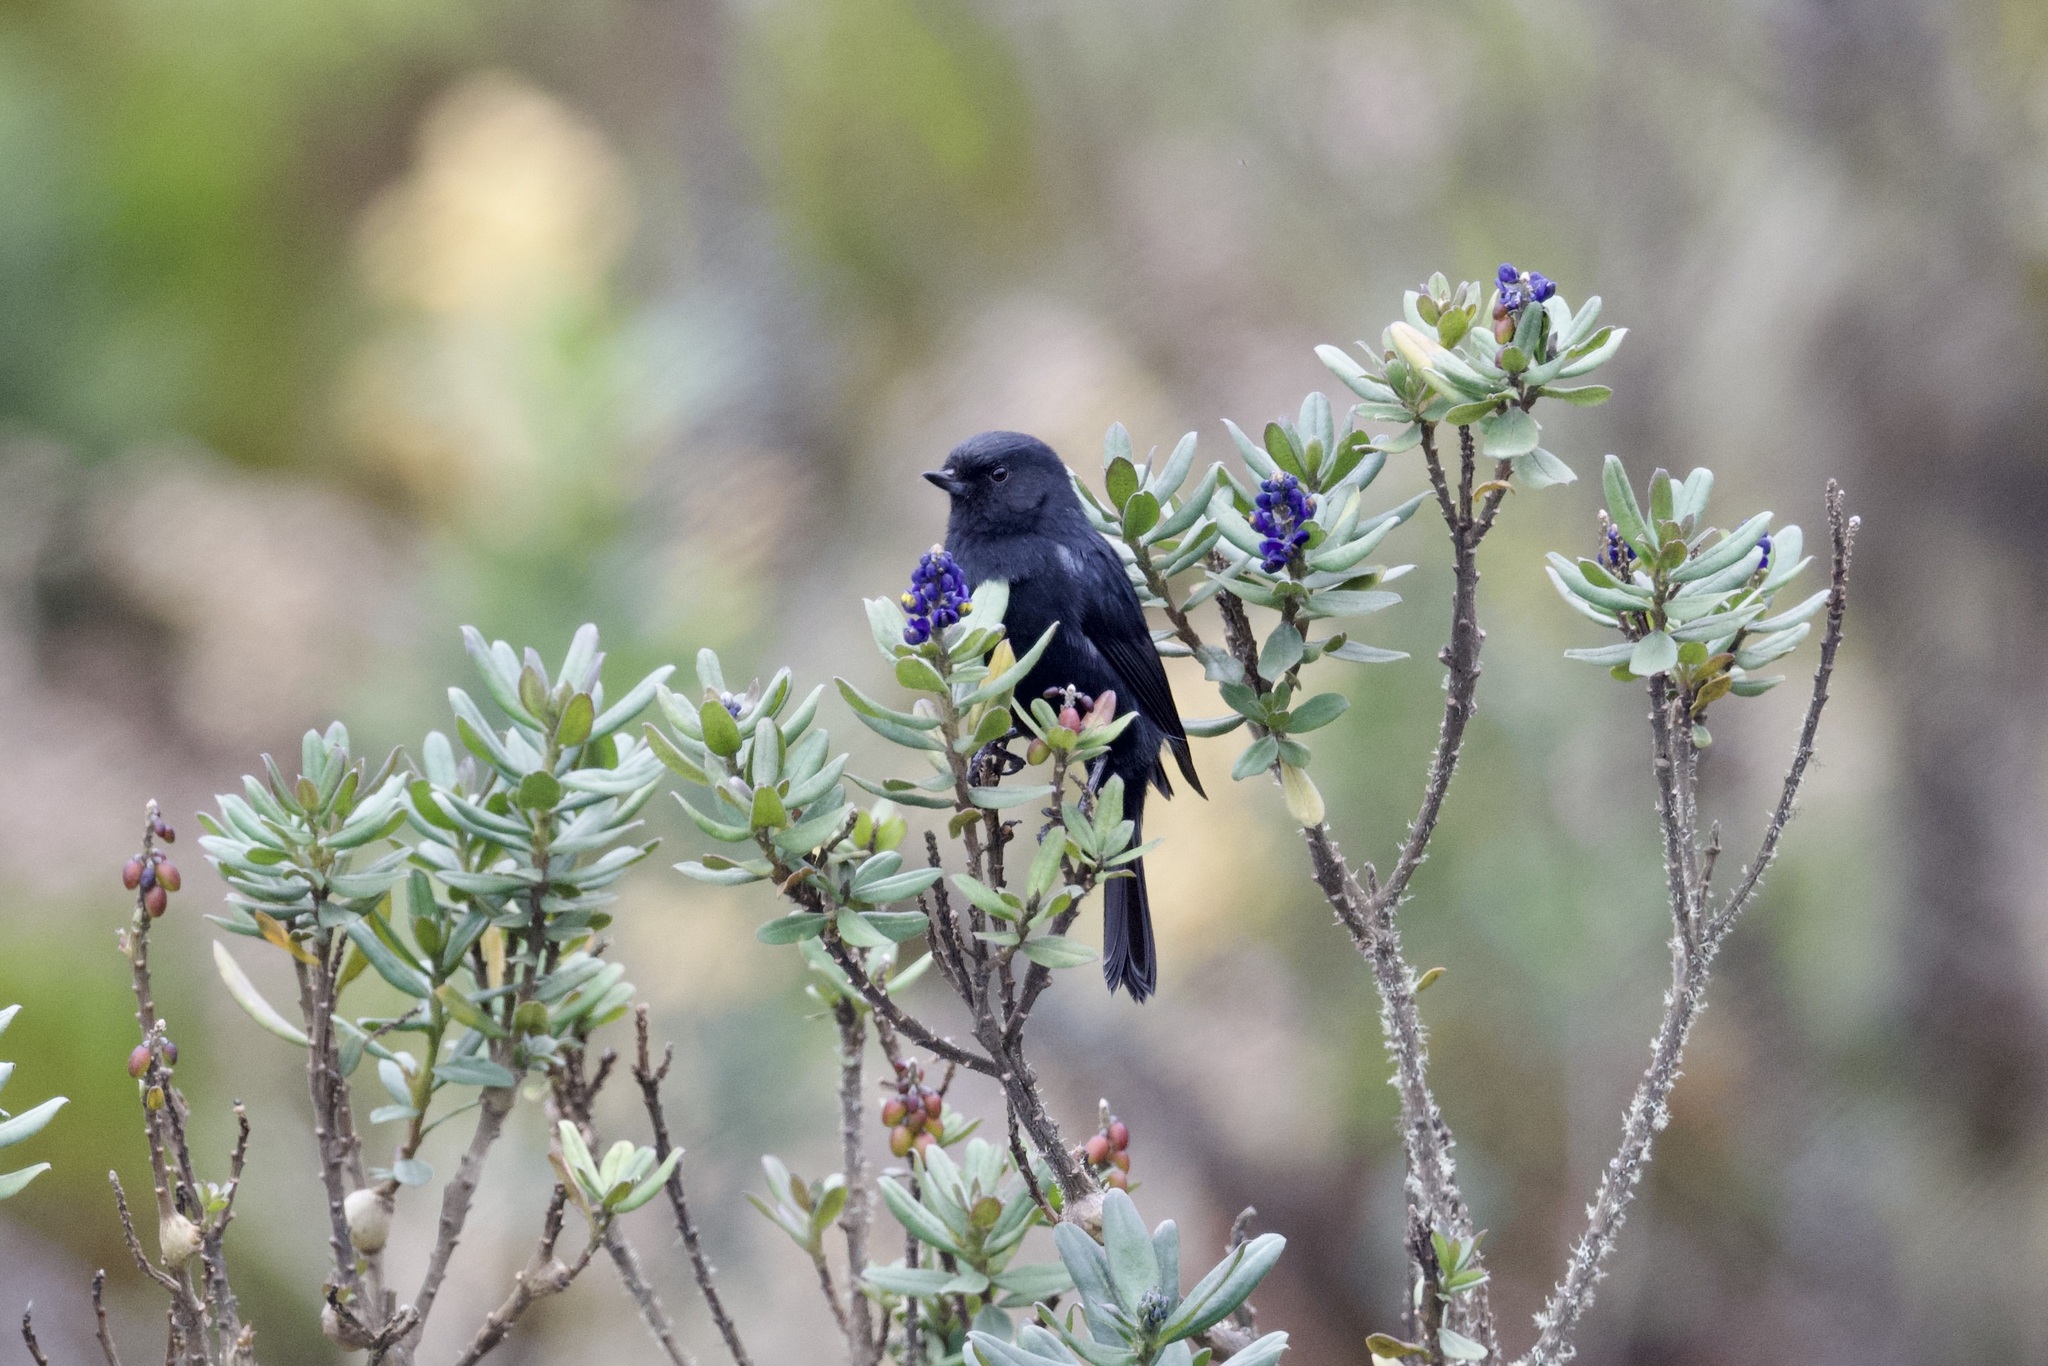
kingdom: Animalia
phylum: Chordata
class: Aves
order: Passeriformes
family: Thraupidae
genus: Diglossa
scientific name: Diglossa lafresnayii
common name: Glossy flowerpiercer
